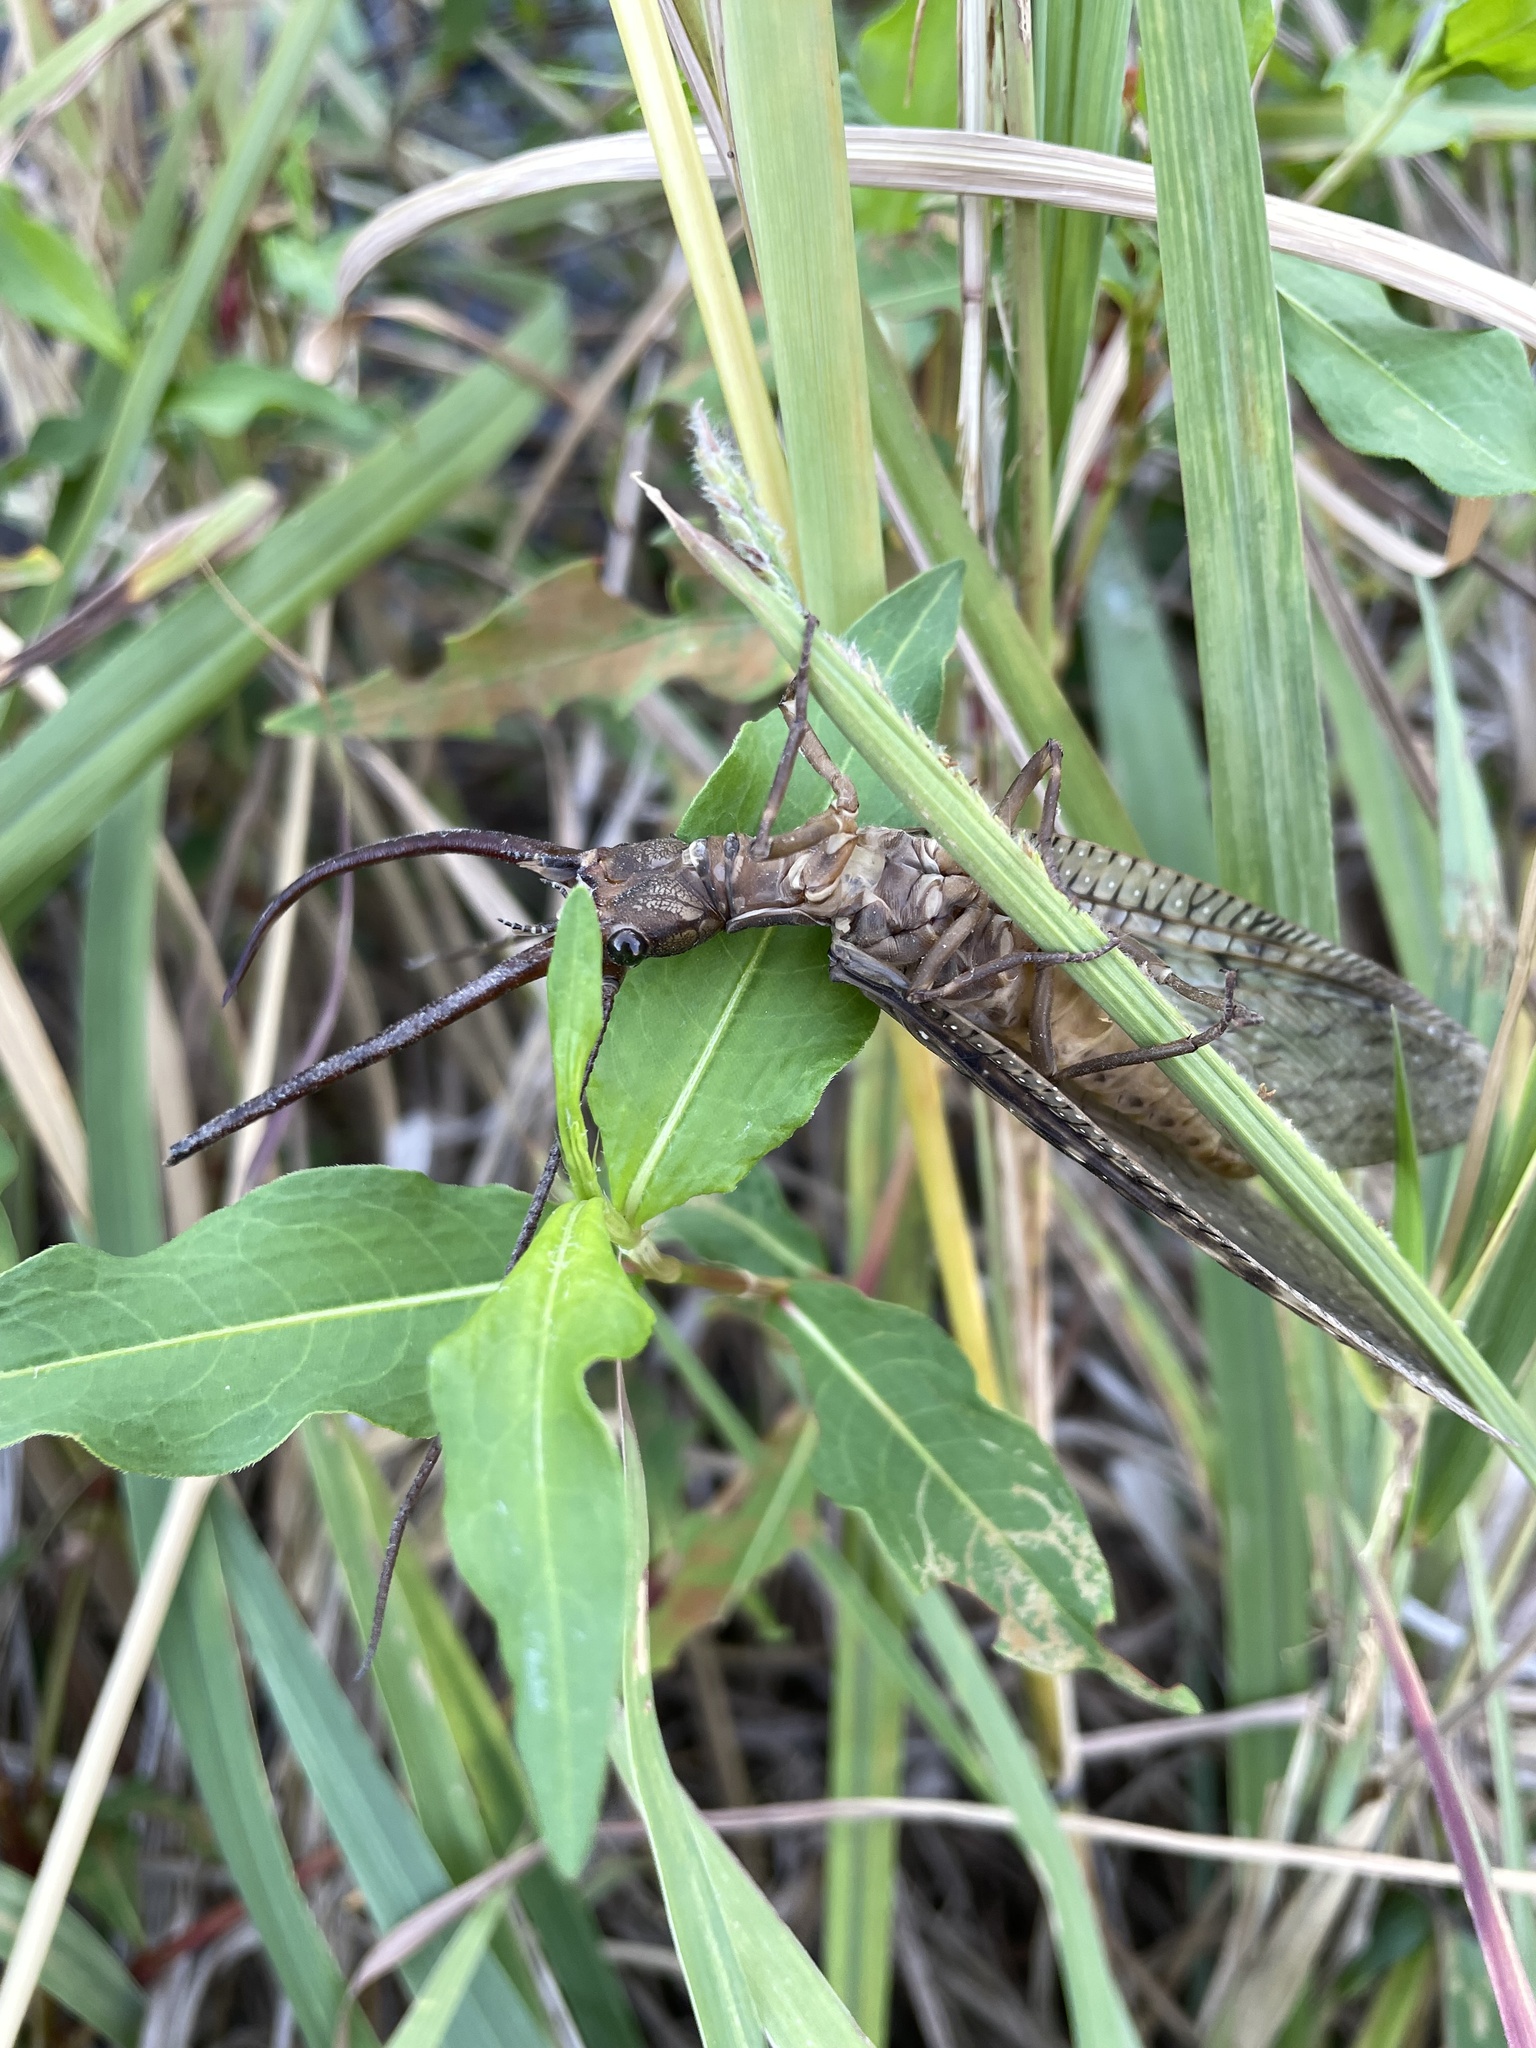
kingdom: Animalia
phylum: Arthropoda
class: Insecta
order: Megaloptera
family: Corydalidae
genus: Corydalus
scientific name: Corydalus cornutus
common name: Dobsonfly
